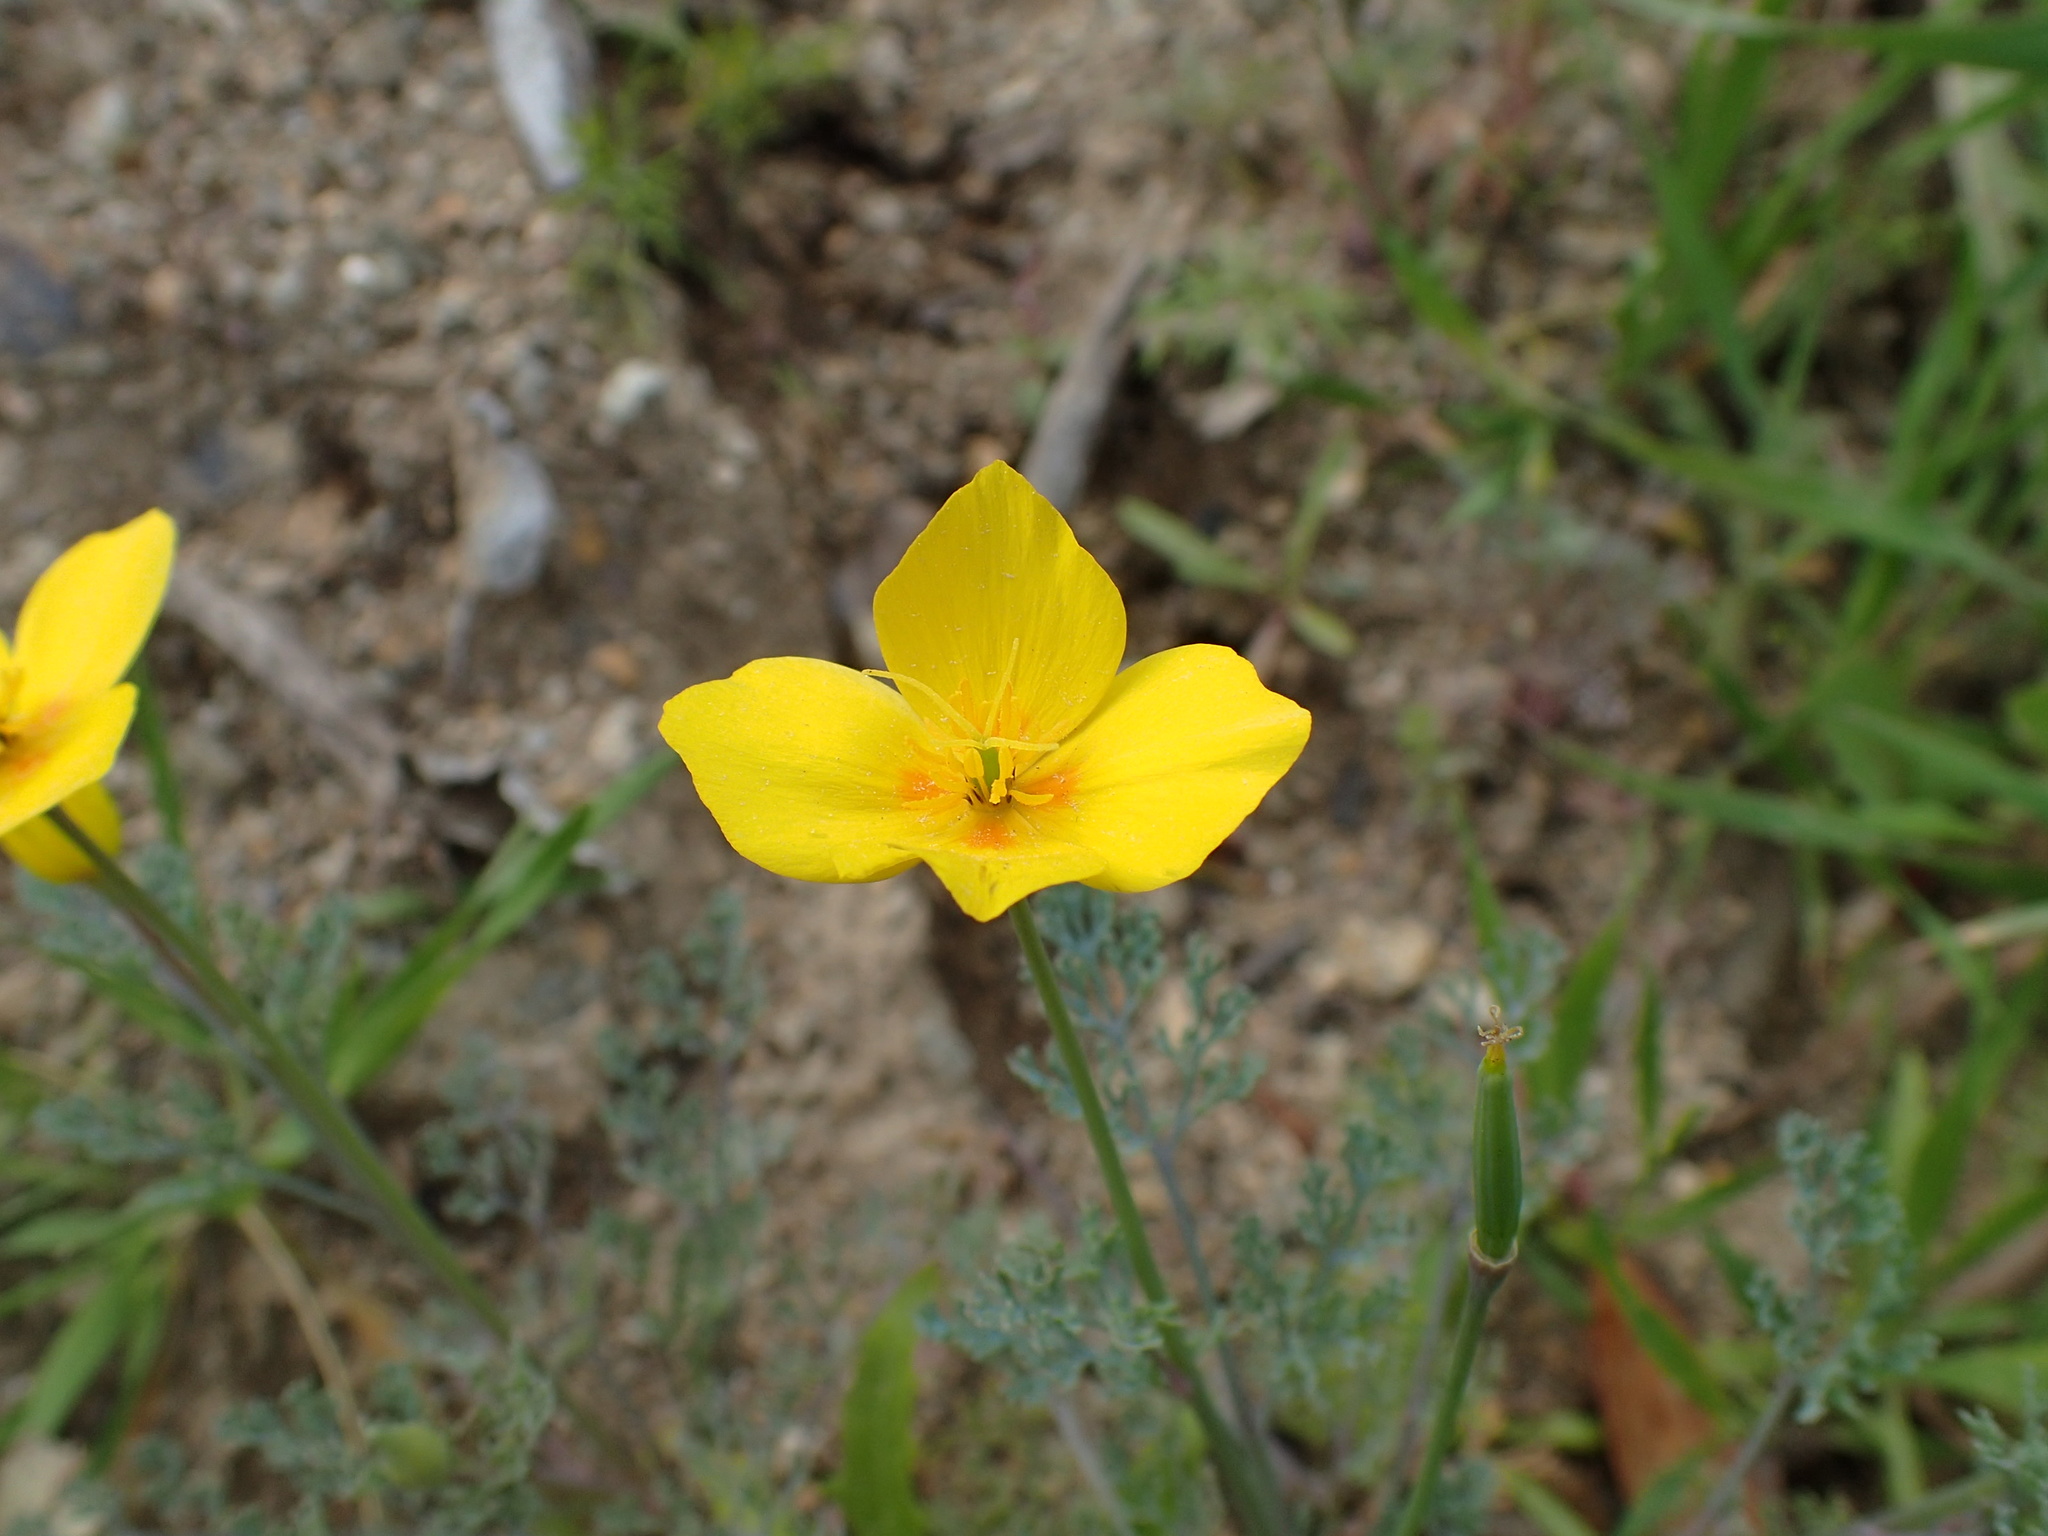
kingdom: Plantae
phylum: Tracheophyta
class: Magnoliopsida
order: Ranunculales
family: Papaveraceae
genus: Eschscholzia
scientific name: Eschscholzia ramosa
